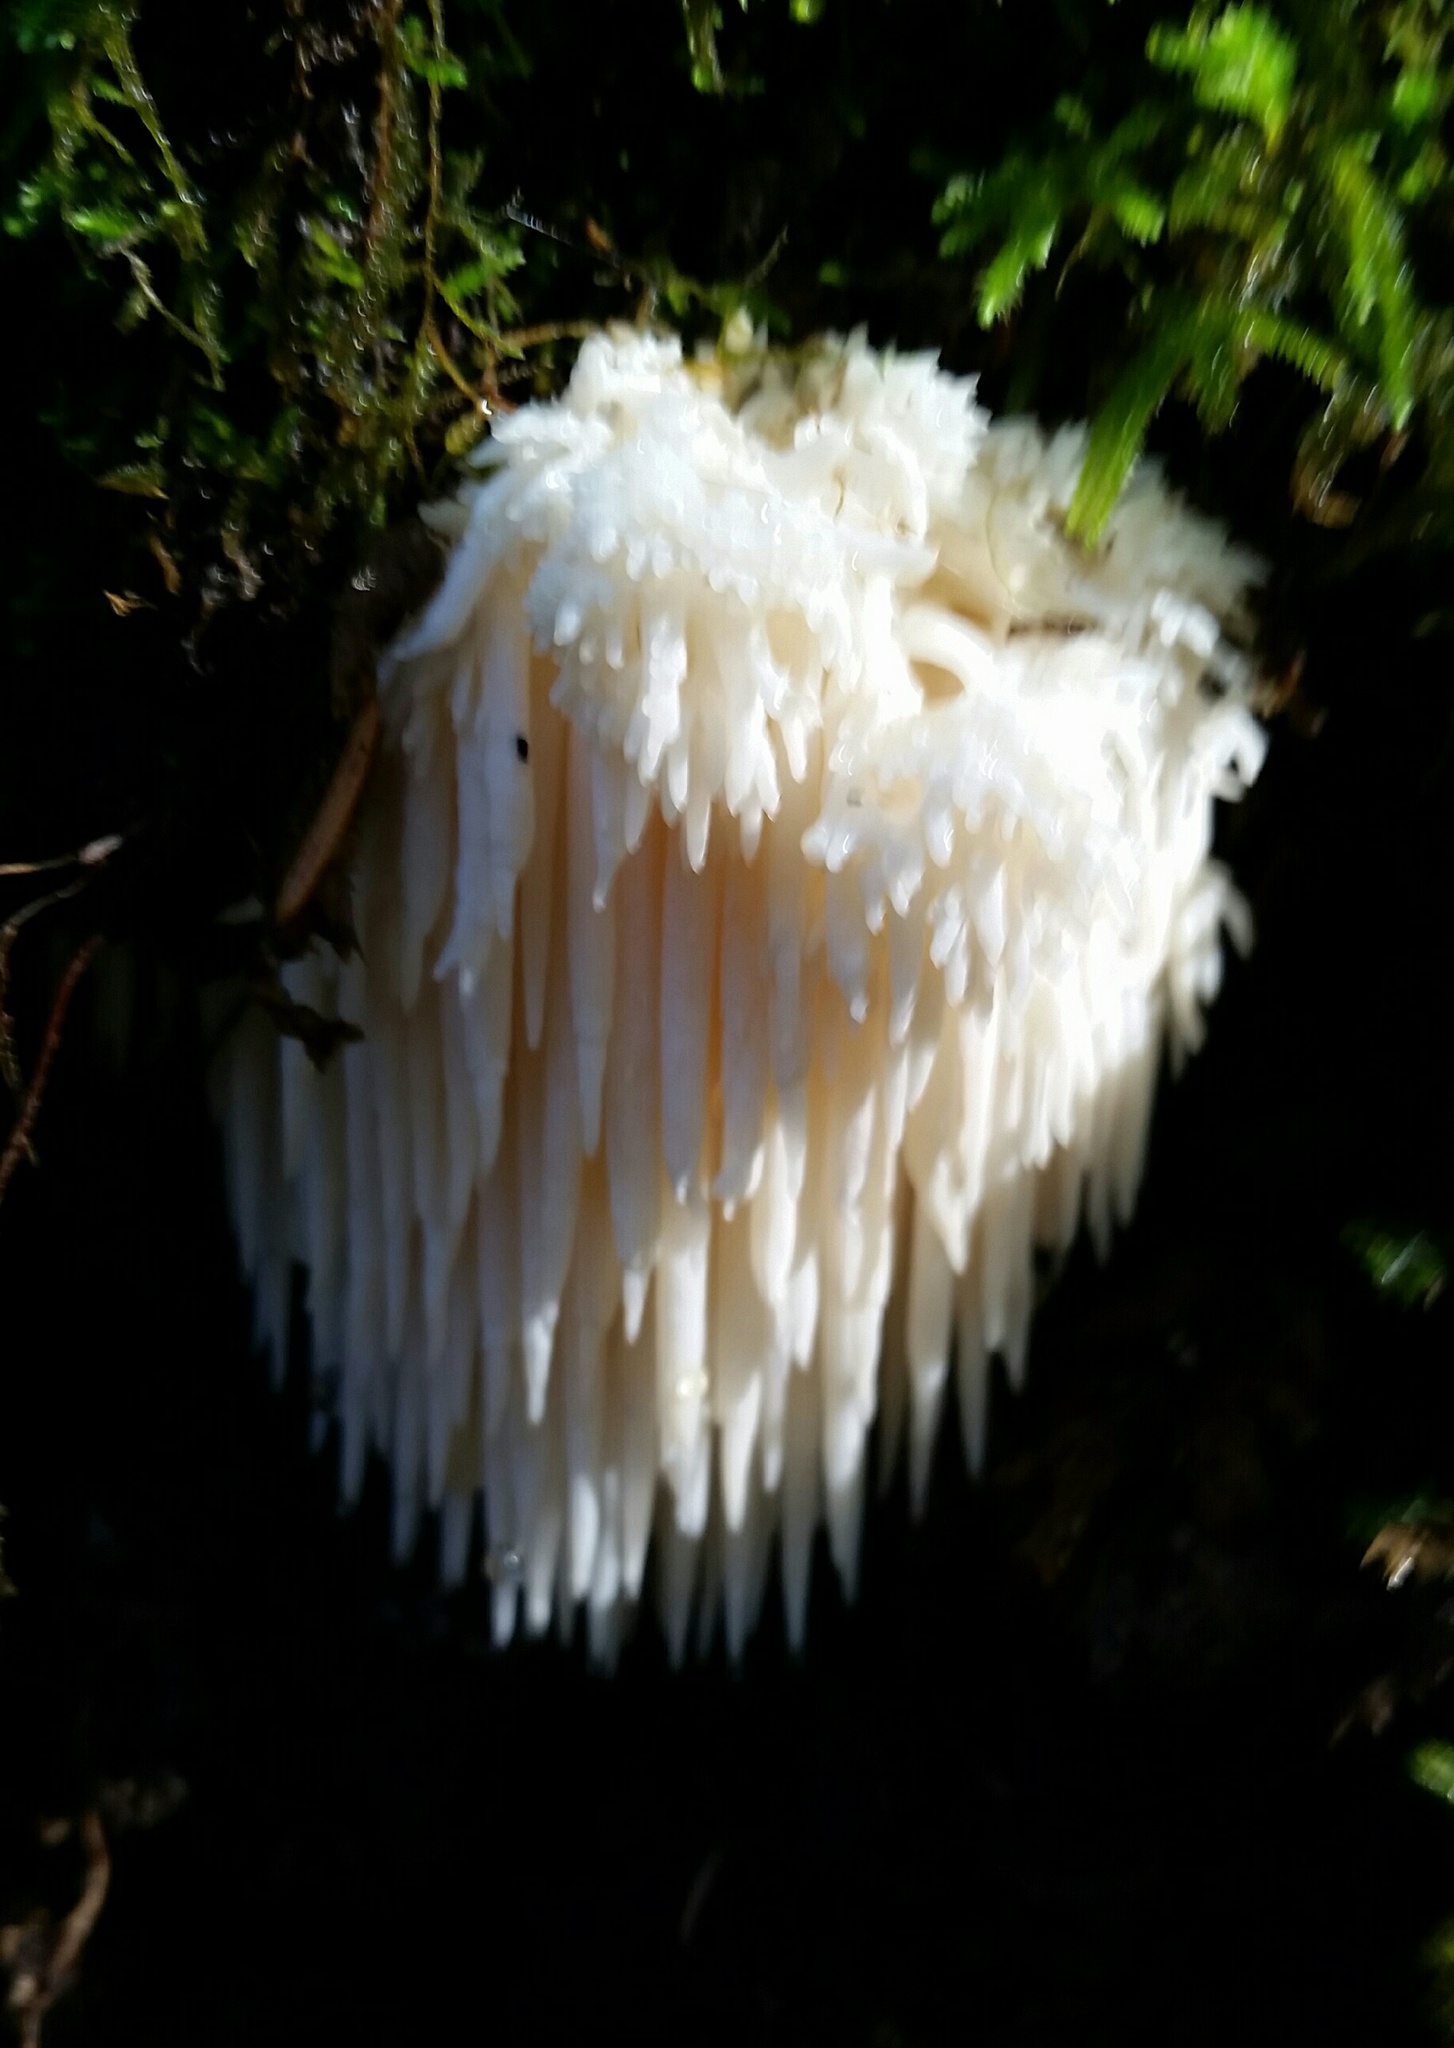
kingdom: Fungi
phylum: Basidiomycota
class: Agaricomycetes
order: Russulales
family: Hericiaceae
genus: Hericium
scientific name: Hericium erinaceus
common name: Bearded tooth
